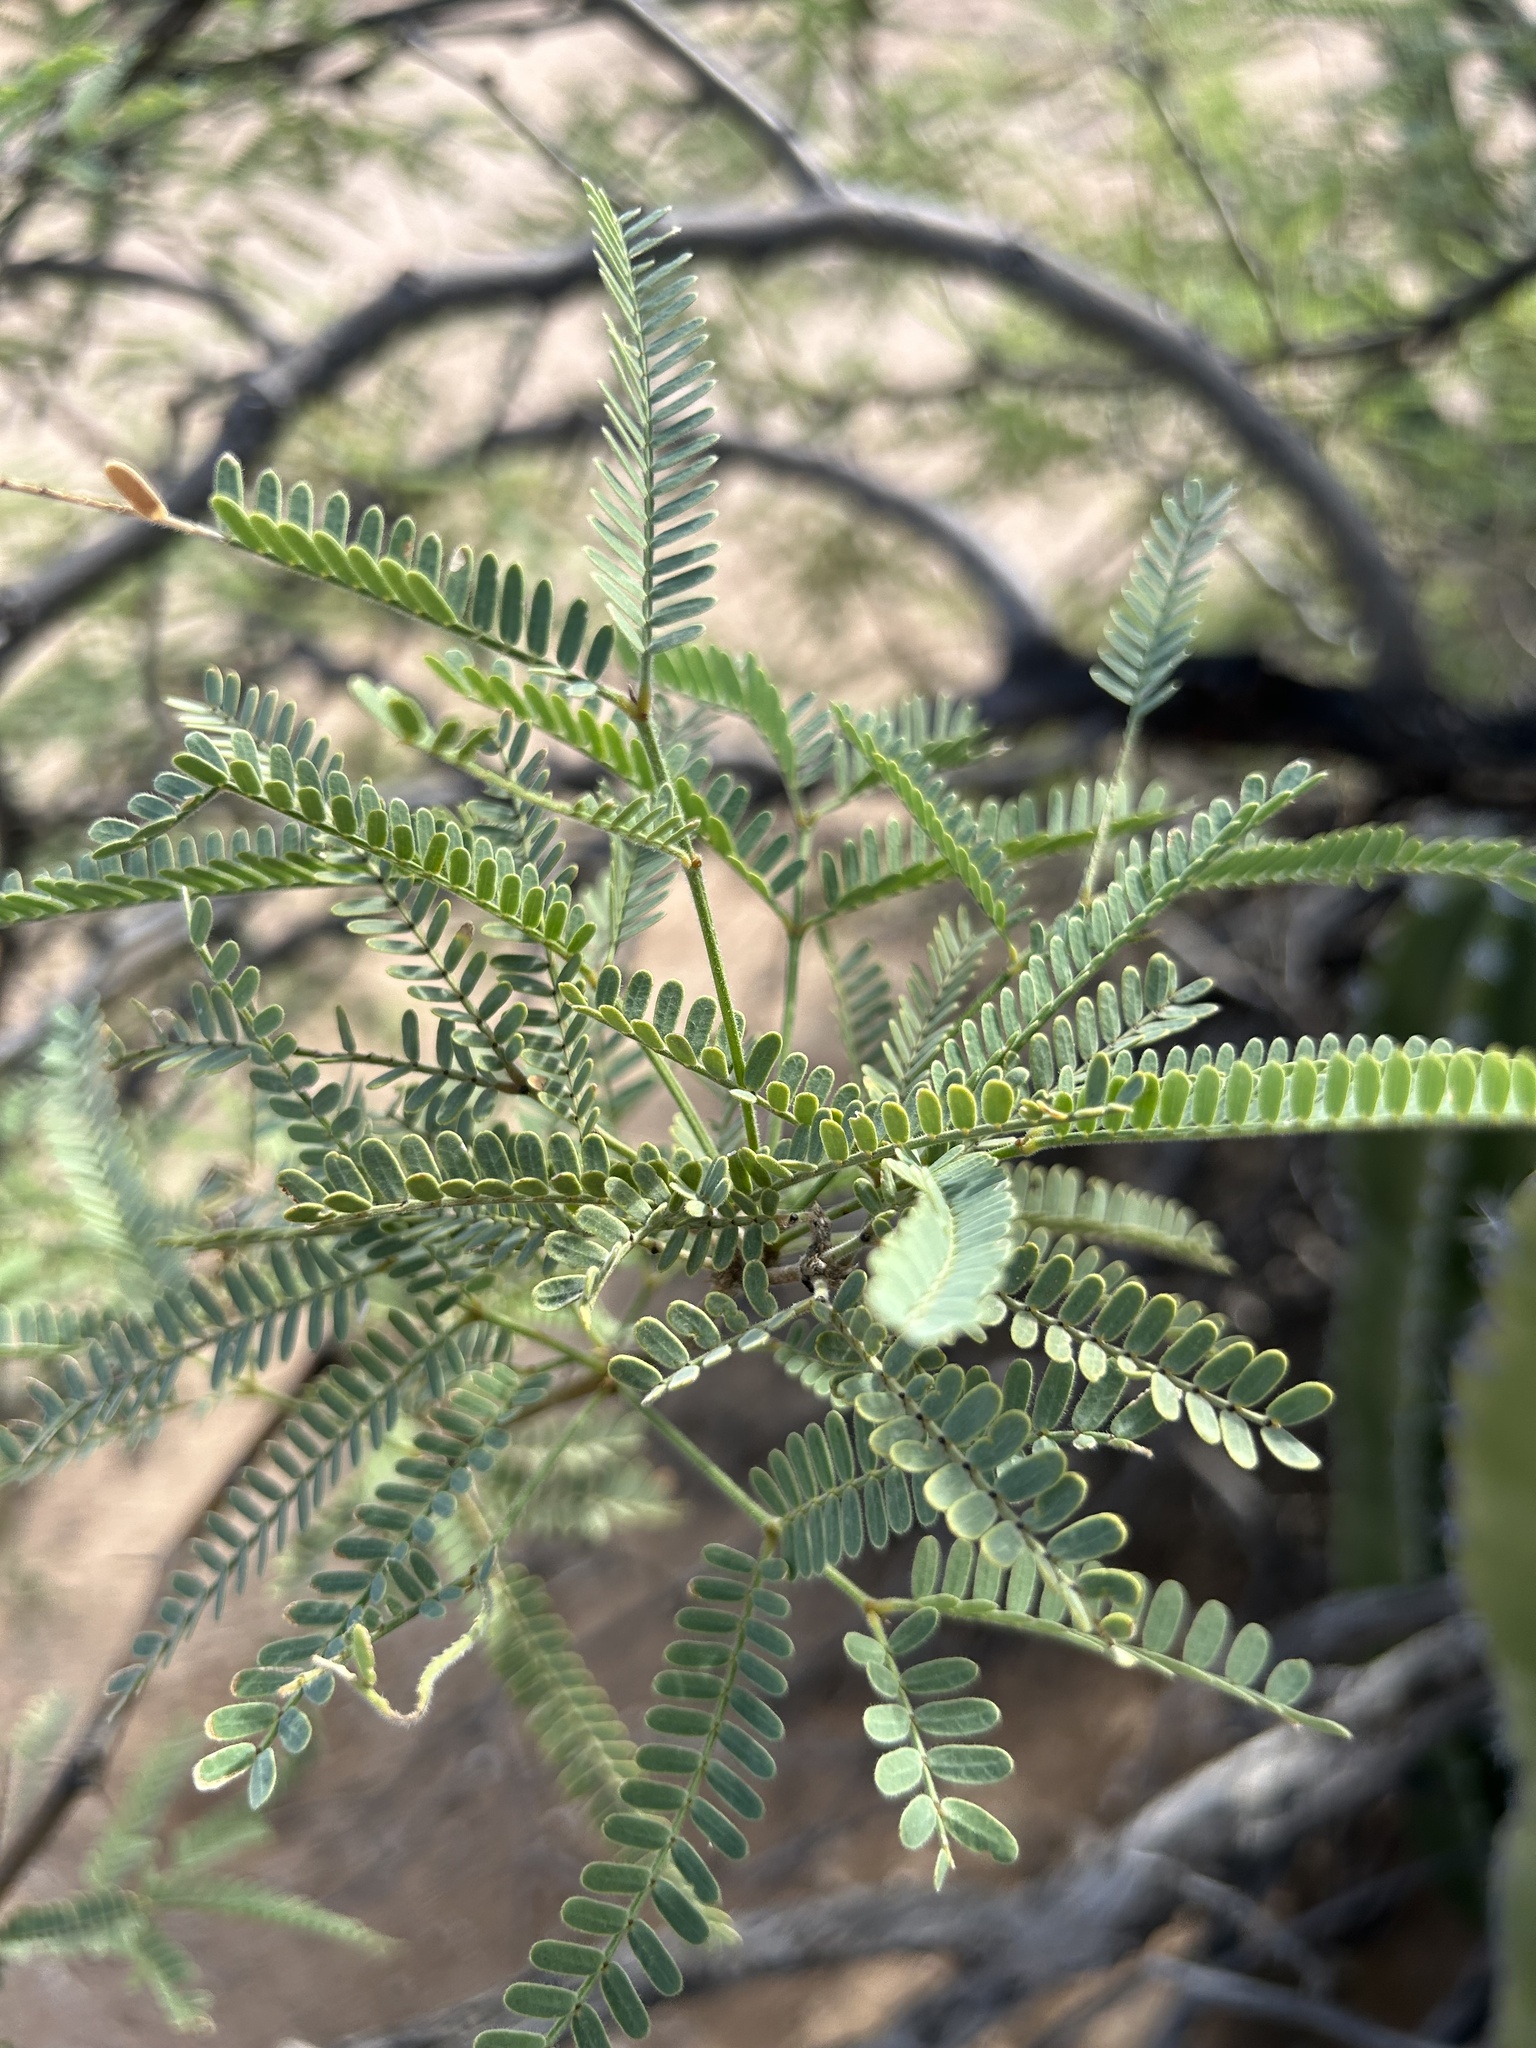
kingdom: Plantae
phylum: Tracheophyta
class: Magnoliopsida
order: Fabales
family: Fabaceae
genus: Prosopis
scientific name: Prosopis velutina
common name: Velvet mesquite
